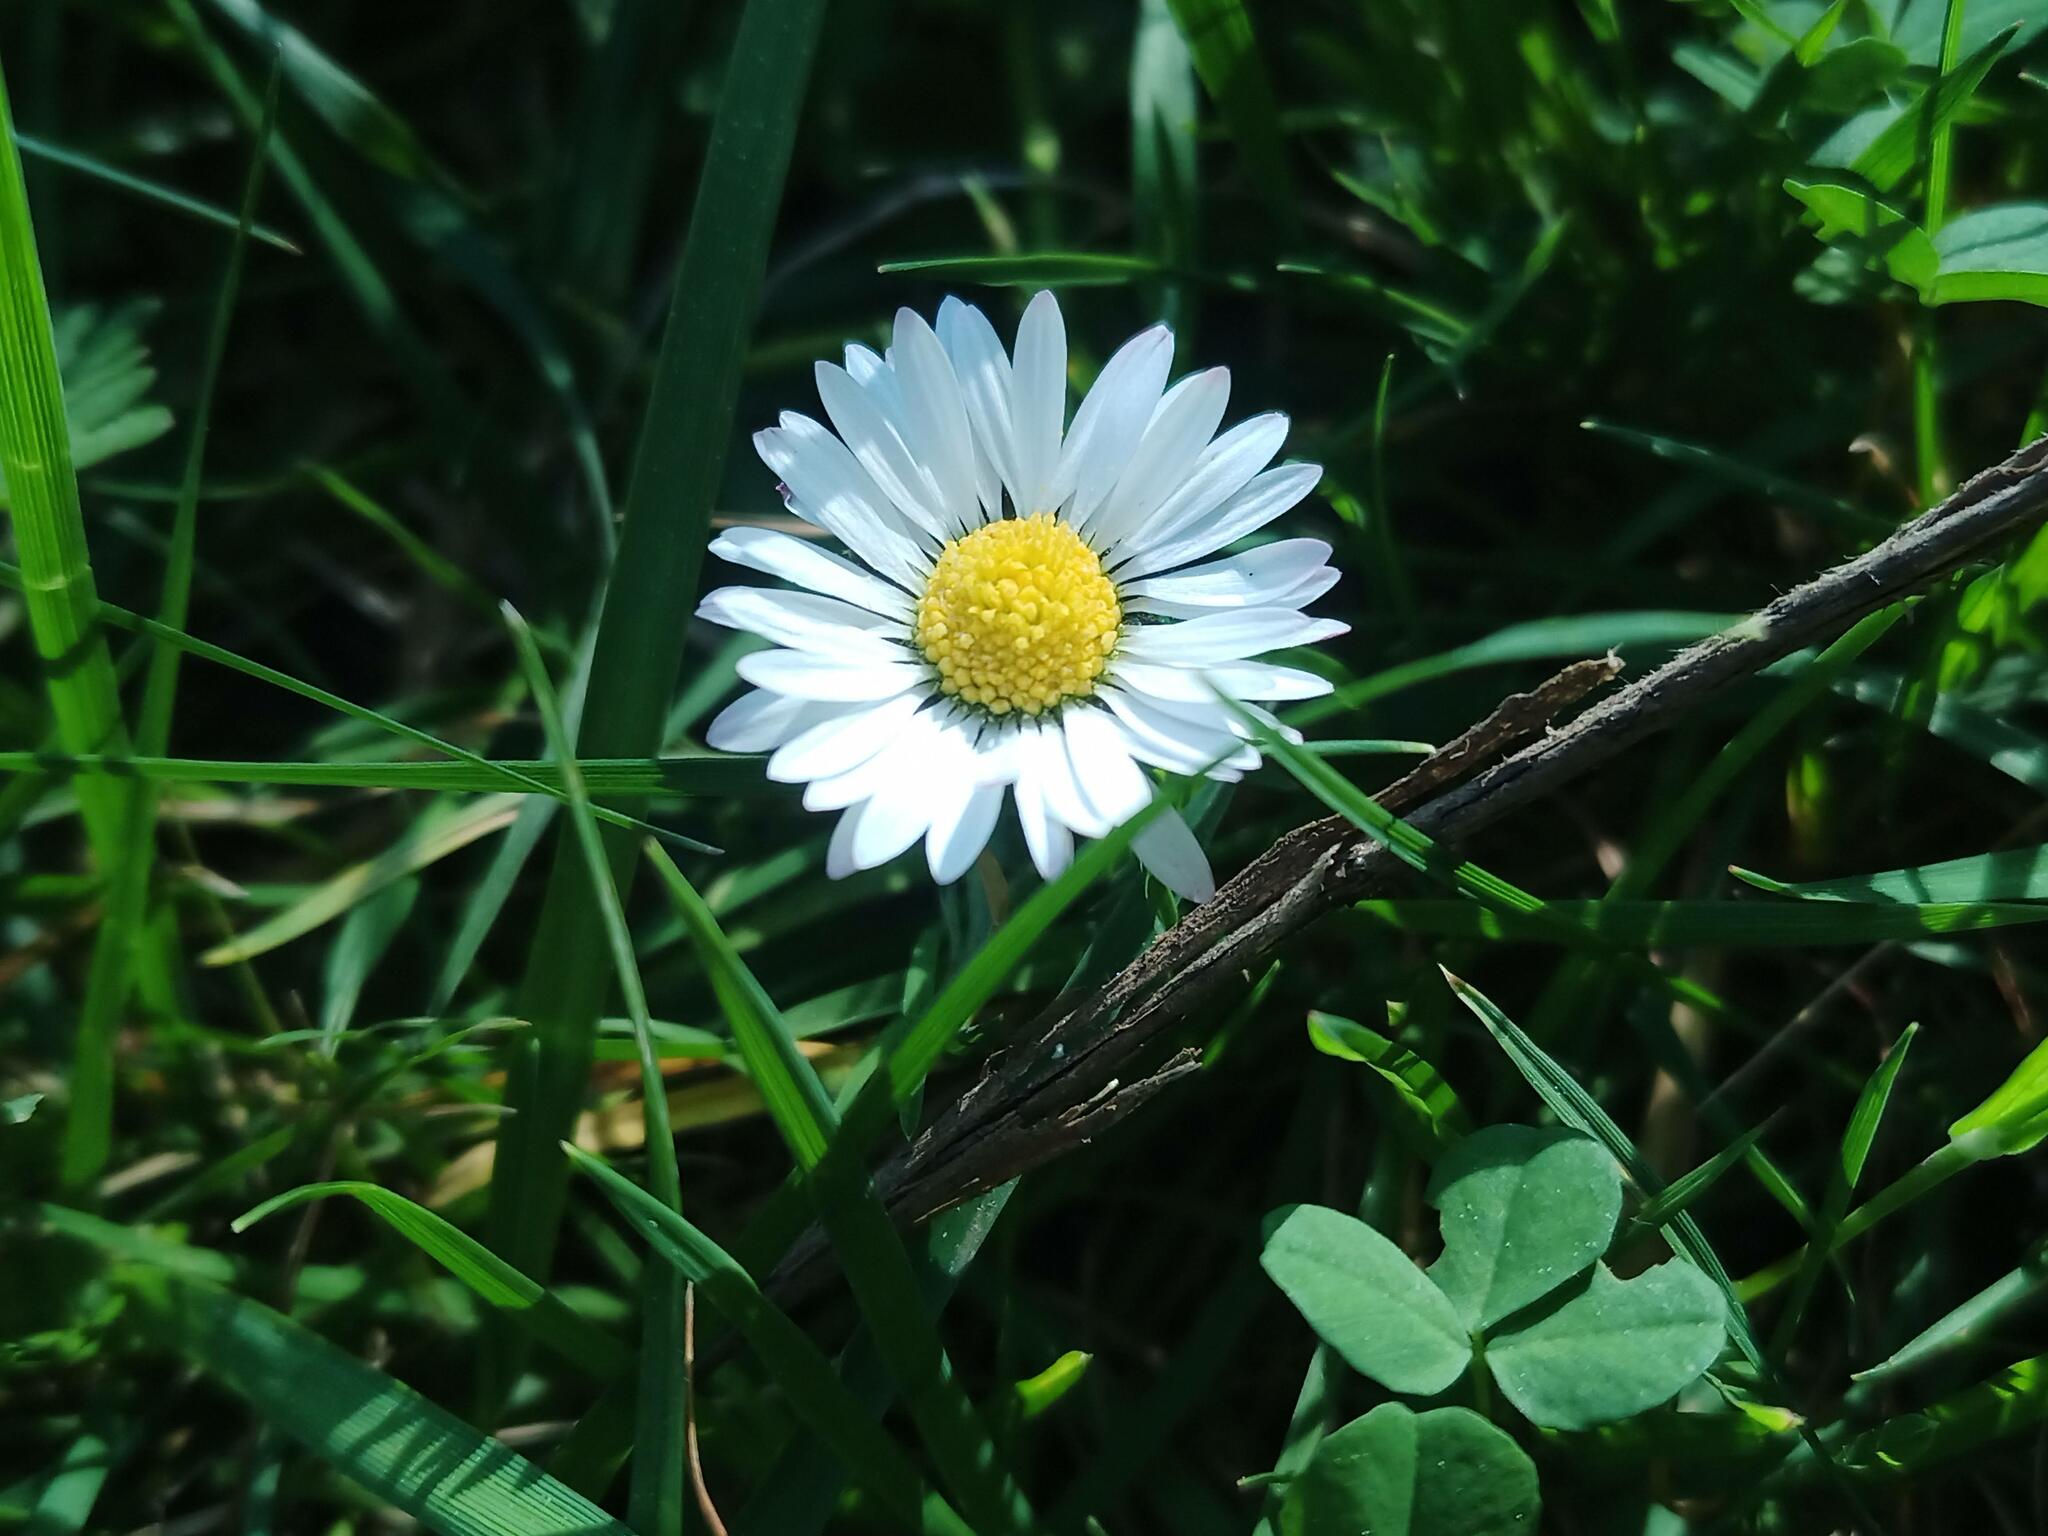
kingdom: Plantae
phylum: Tracheophyta
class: Magnoliopsida
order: Asterales
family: Asteraceae
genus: Bellis
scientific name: Bellis perennis
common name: Lawndaisy
